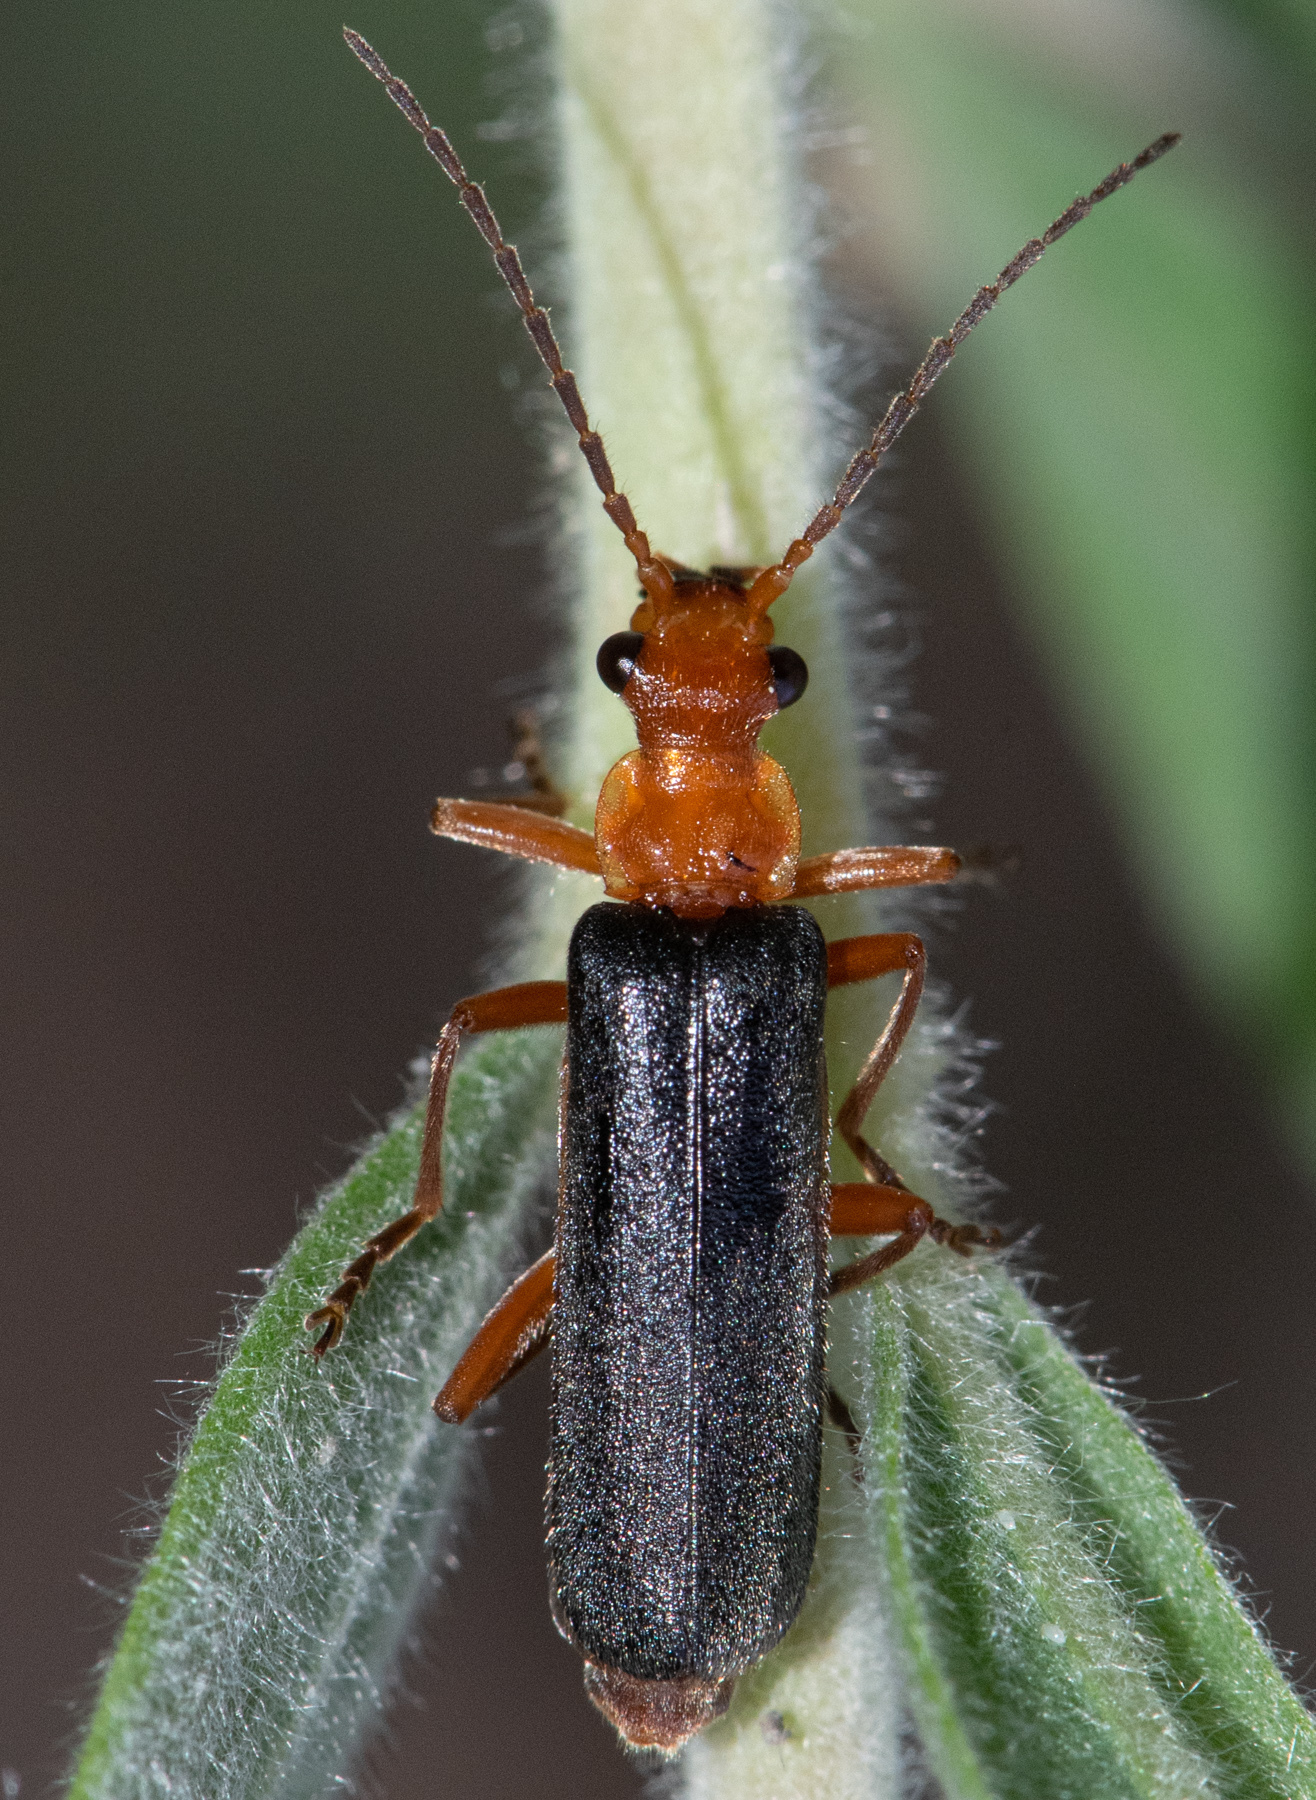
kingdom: Animalia
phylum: Arthropoda
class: Insecta
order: Coleoptera
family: Cantharidae
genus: Podabrus
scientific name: Podabrus pruinosus
